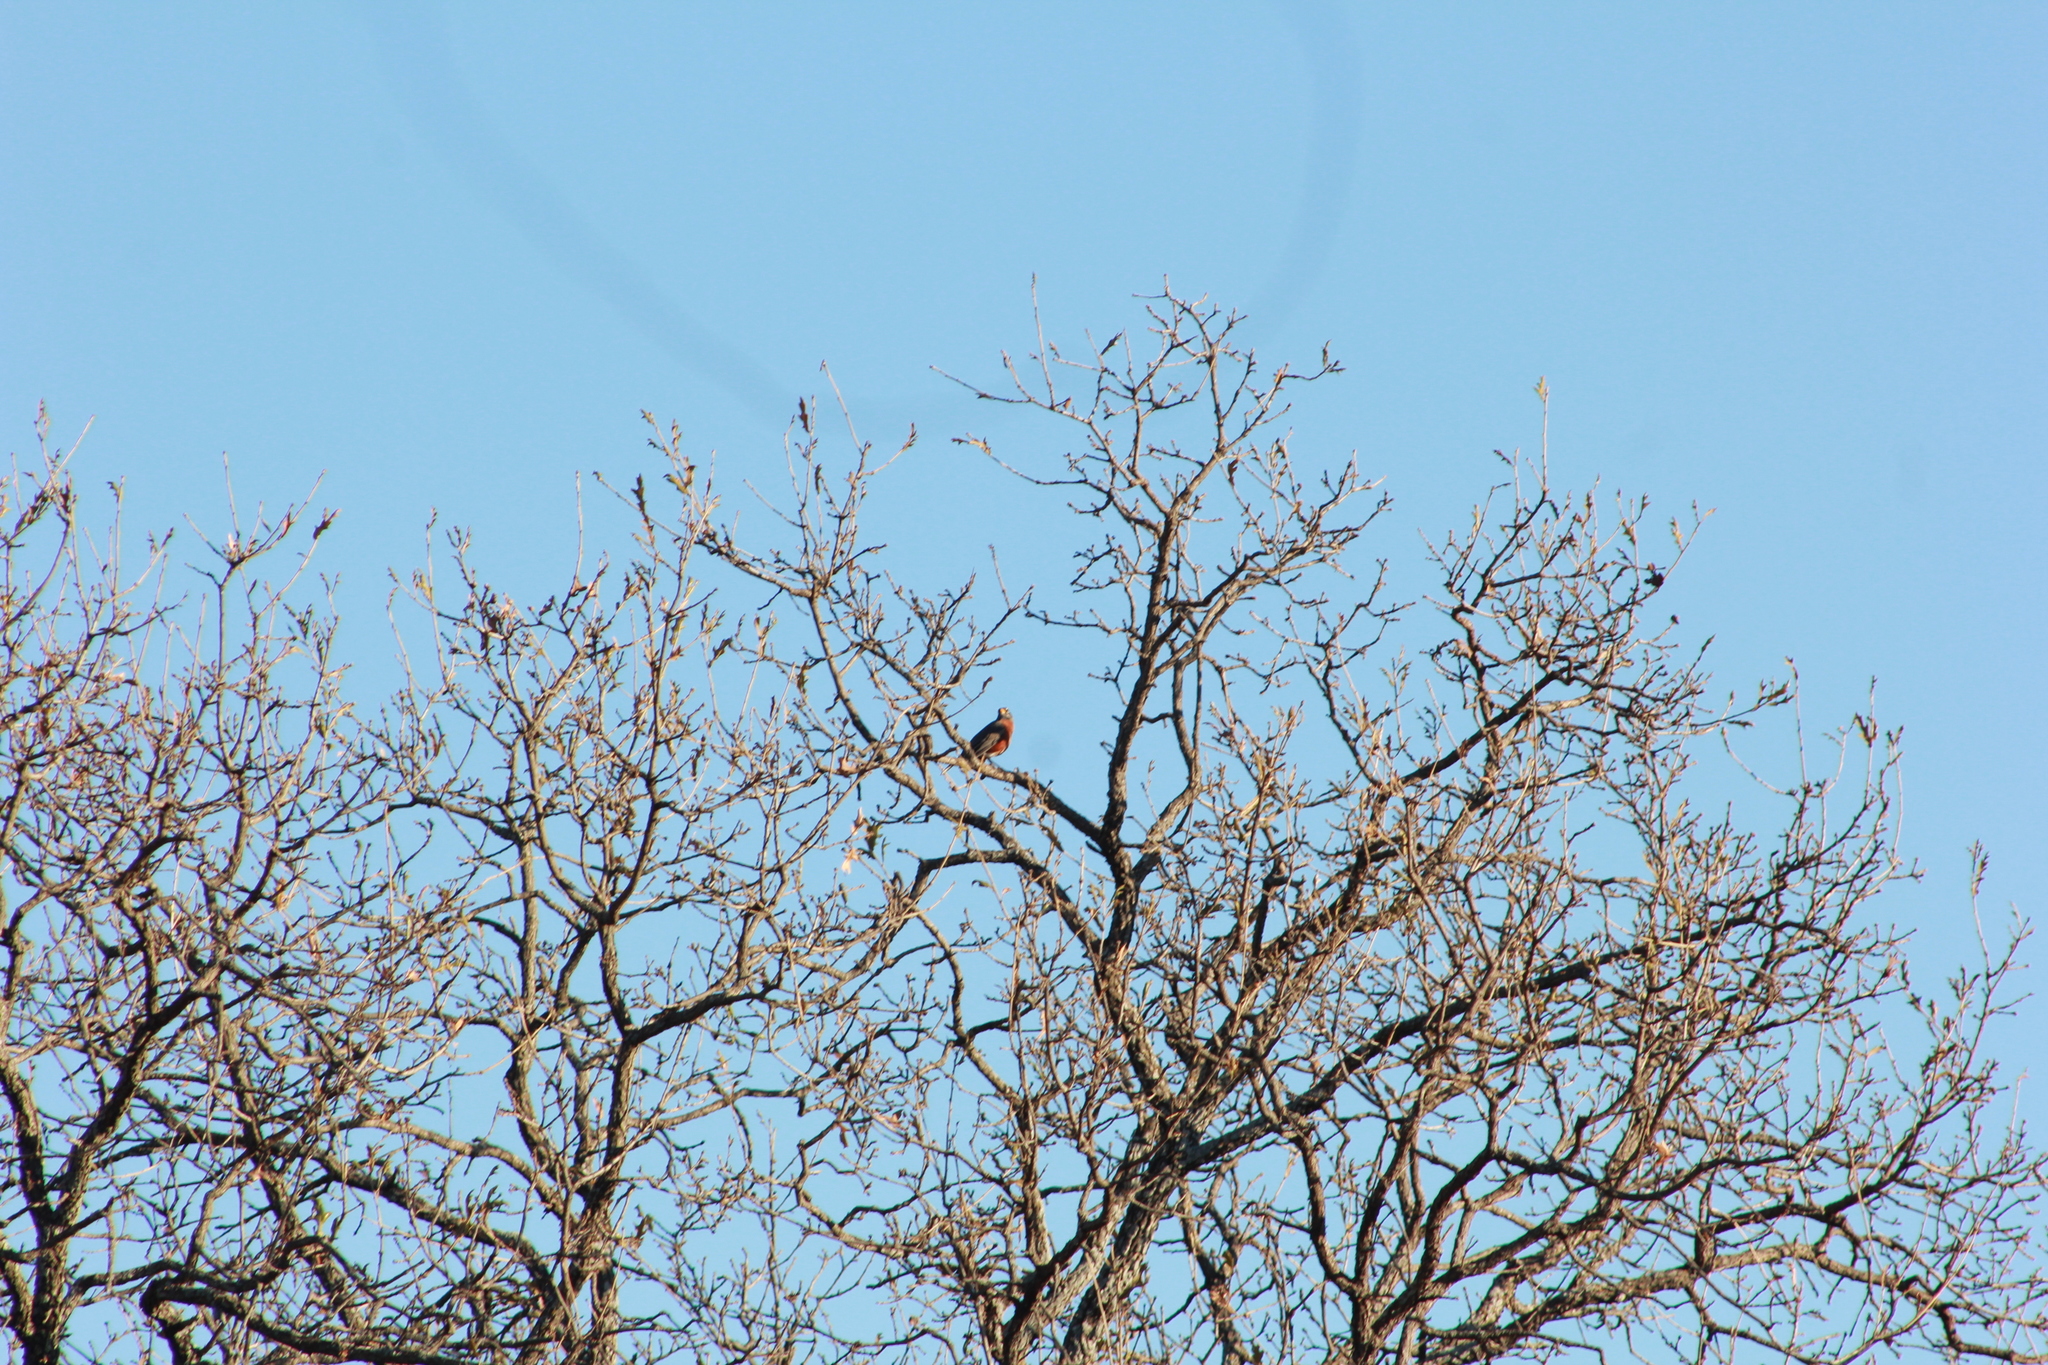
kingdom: Animalia
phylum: Chordata
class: Aves
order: Passeriformes
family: Turdidae
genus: Turdus
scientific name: Turdus migratorius
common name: American robin
